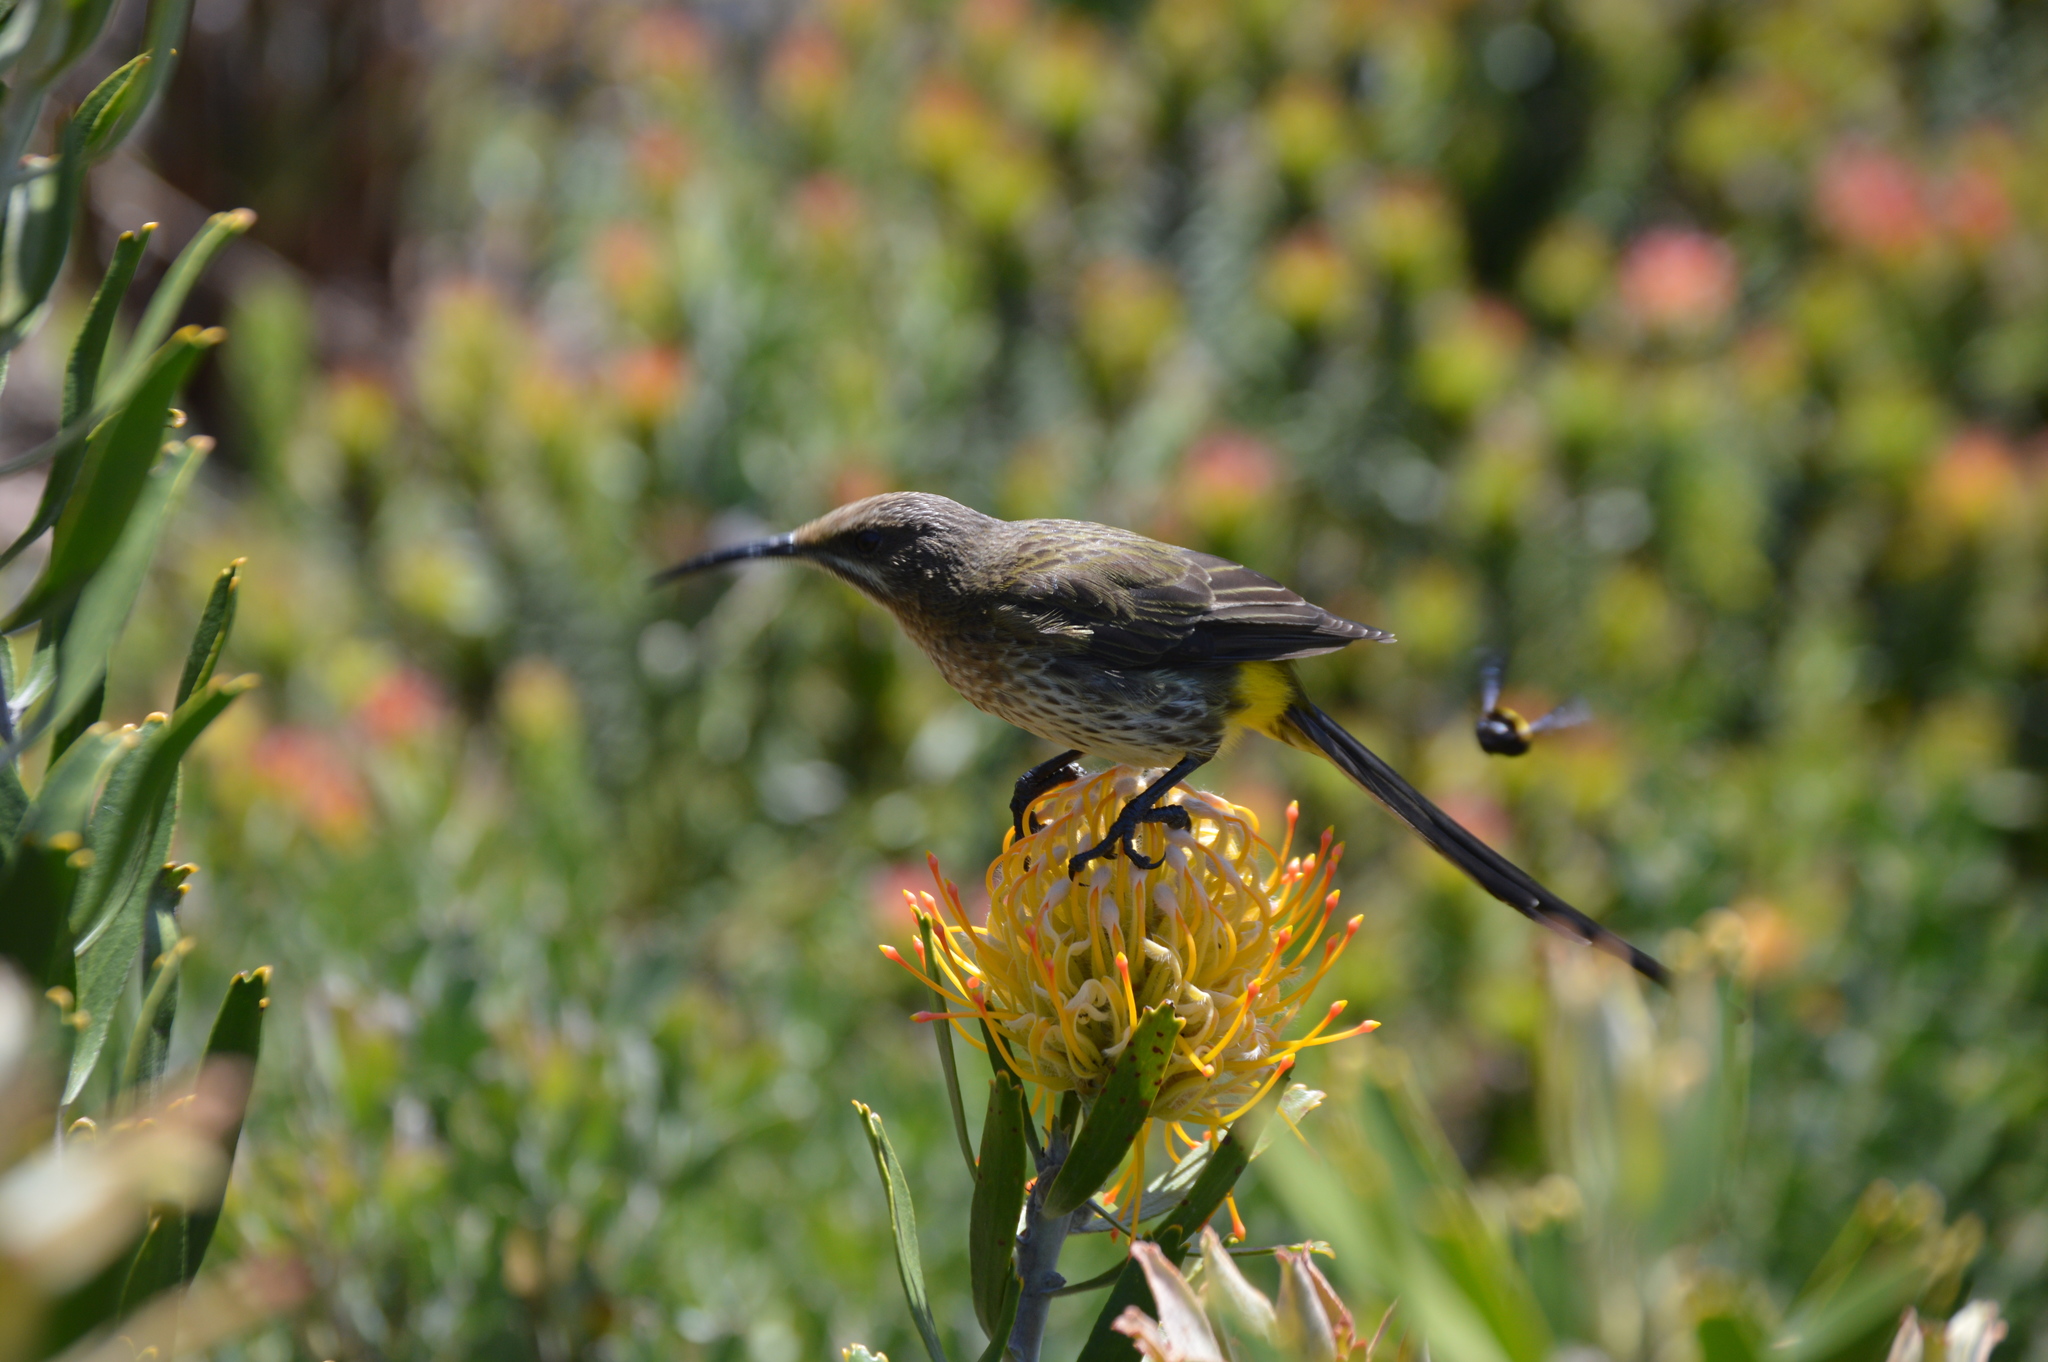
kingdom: Animalia
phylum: Chordata
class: Aves
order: Passeriformes
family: Promeropidae
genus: Promerops
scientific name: Promerops cafer
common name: Cape sugarbird
